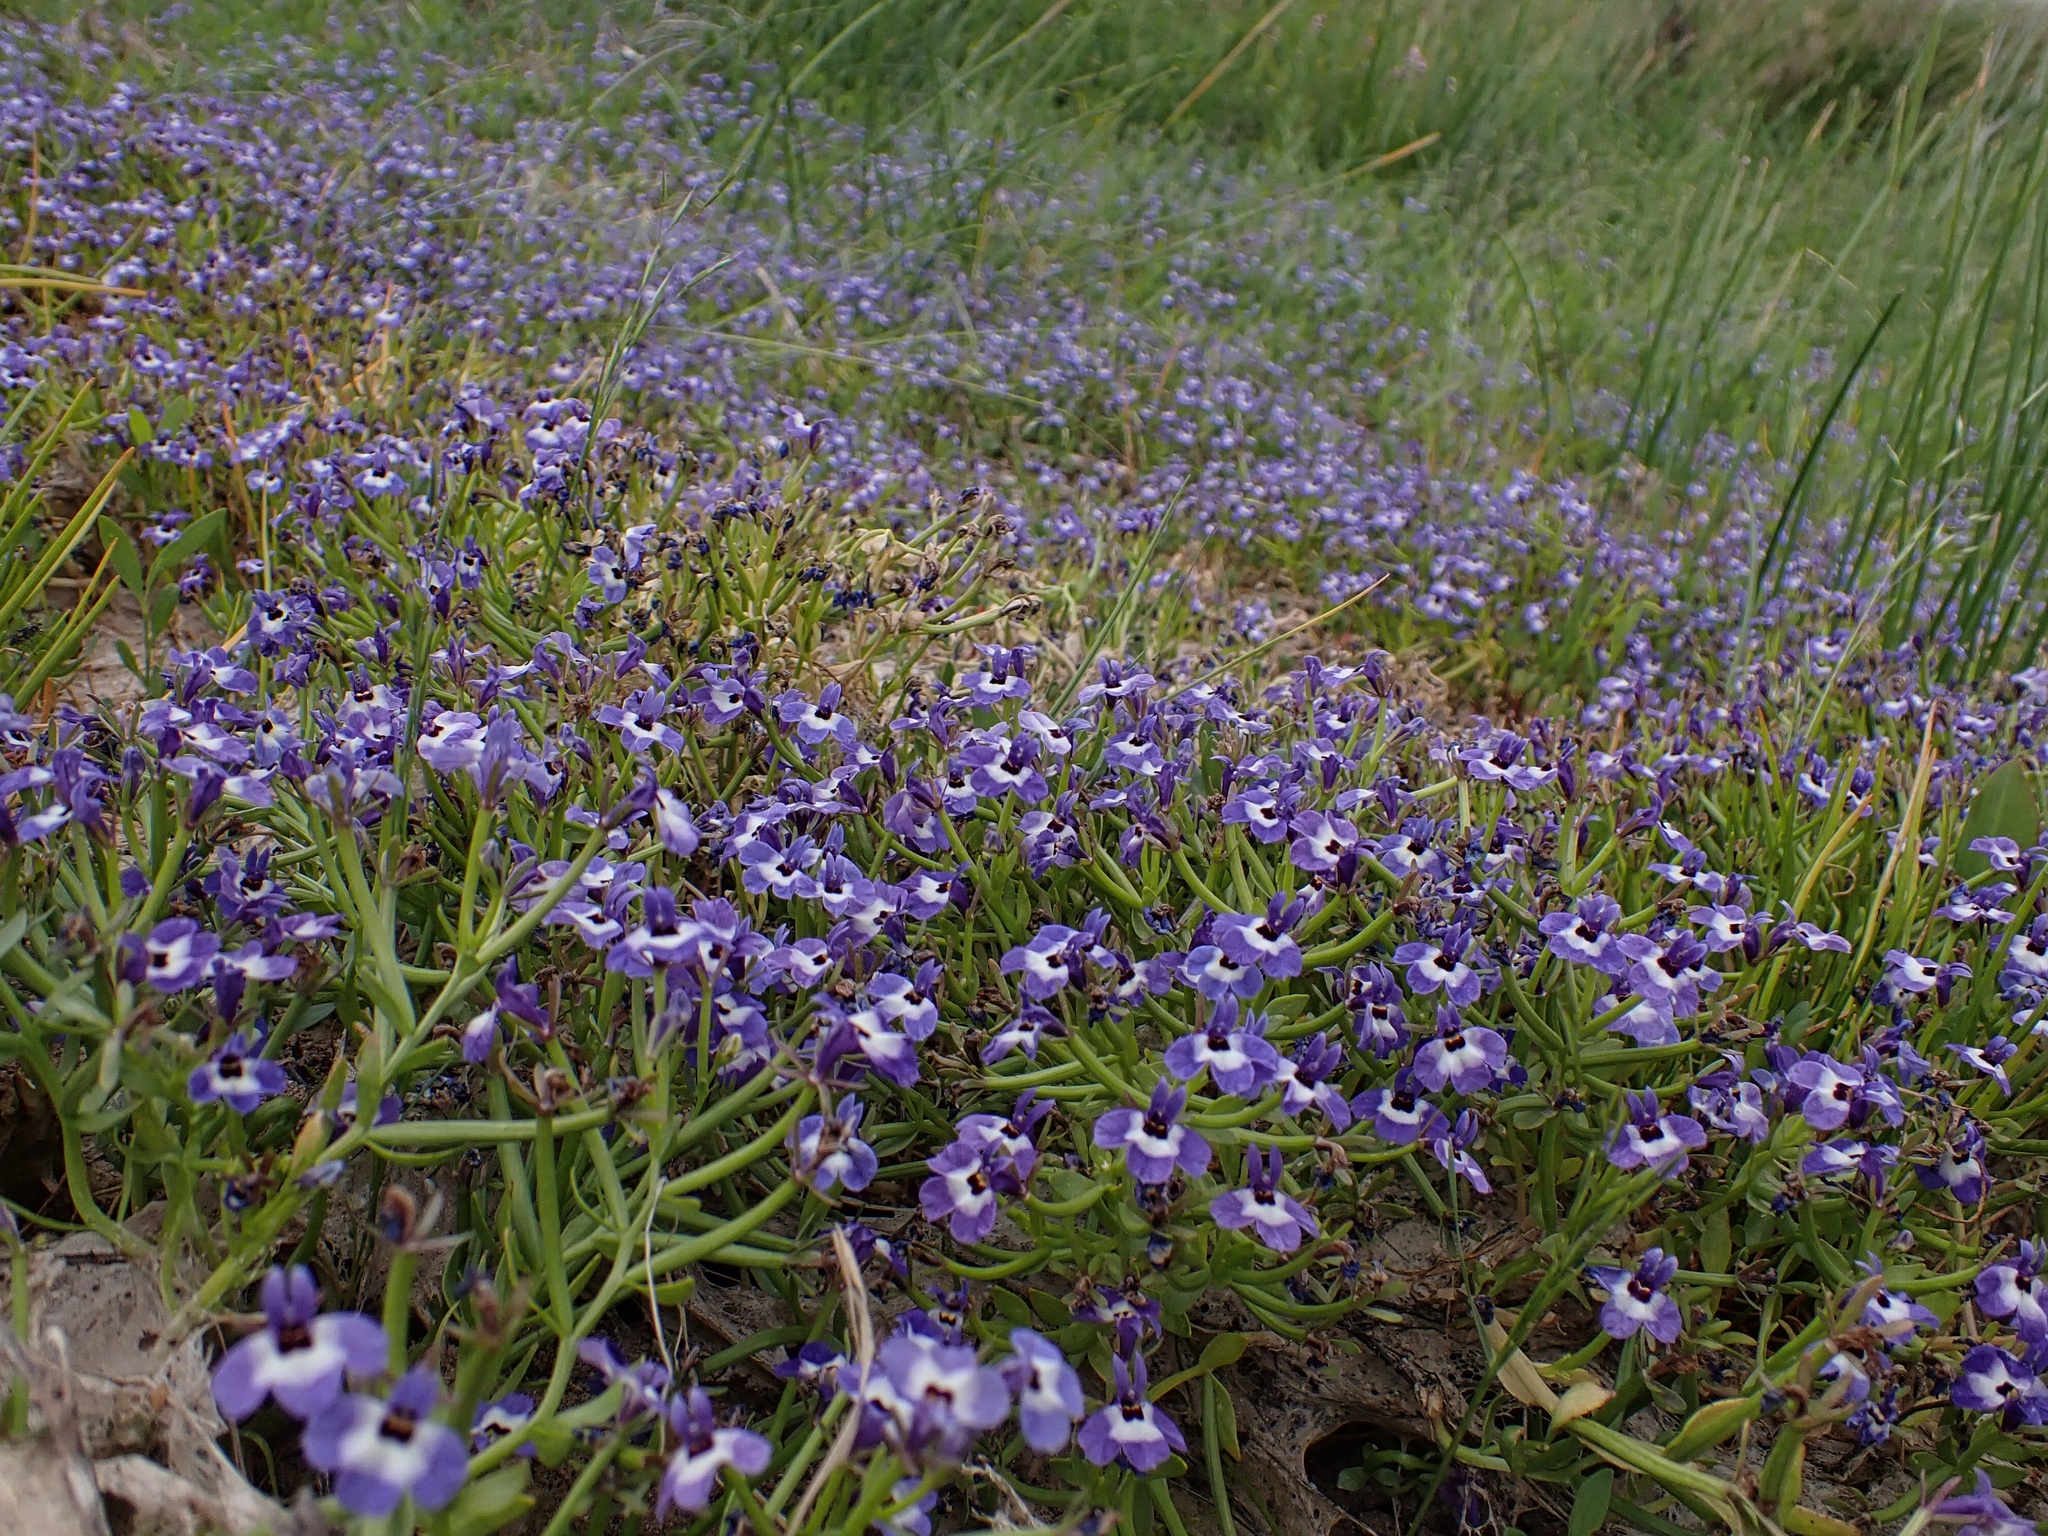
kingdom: Plantae
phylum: Tracheophyta
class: Magnoliopsida
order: Asterales
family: Campanulaceae
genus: Downingia
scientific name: Downingia concolor
